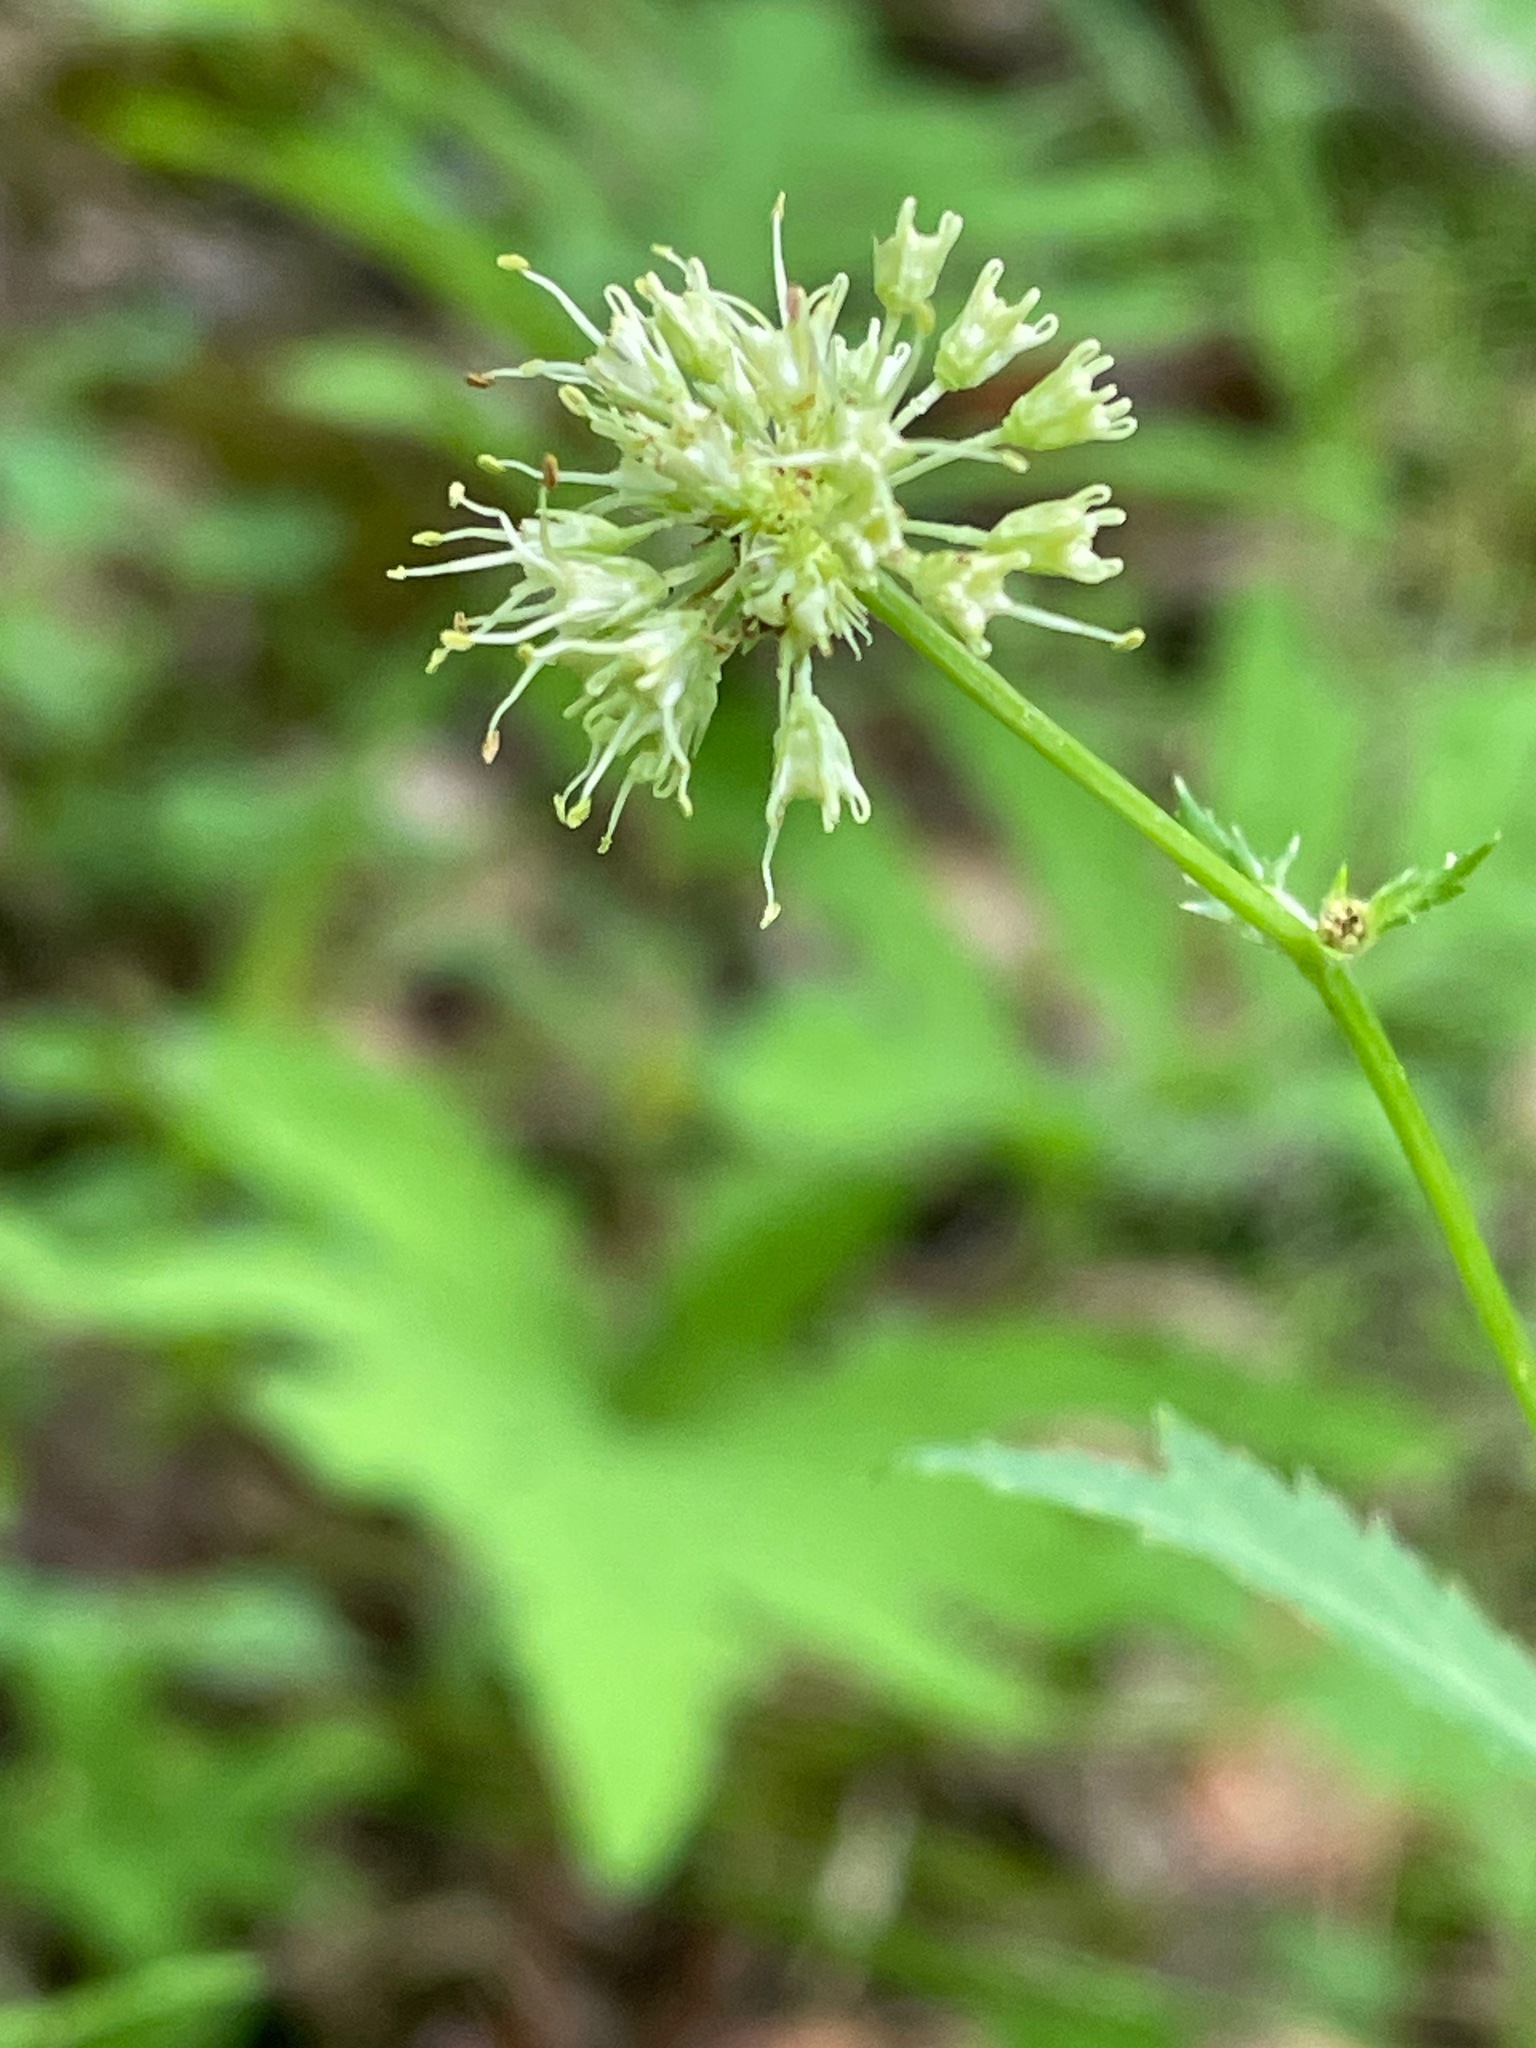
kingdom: Plantae
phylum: Tracheophyta
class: Magnoliopsida
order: Apiales
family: Apiaceae
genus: Sanicula
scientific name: Sanicula marilandica
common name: Black snakeroot
